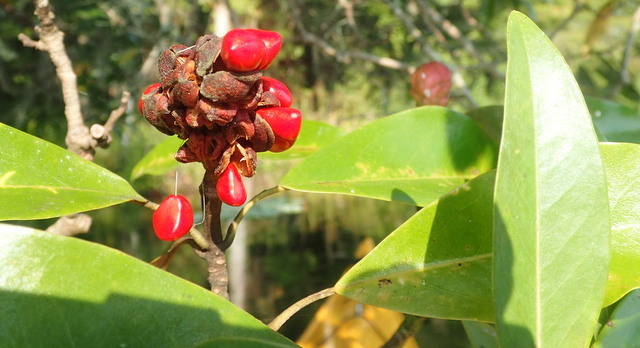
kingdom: Plantae
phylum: Tracheophyta
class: Magnoliopsida
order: Magnoliales
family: Magnoliaceae
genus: Magnolia
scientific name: Magnolia virginiana
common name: Swamp bay
